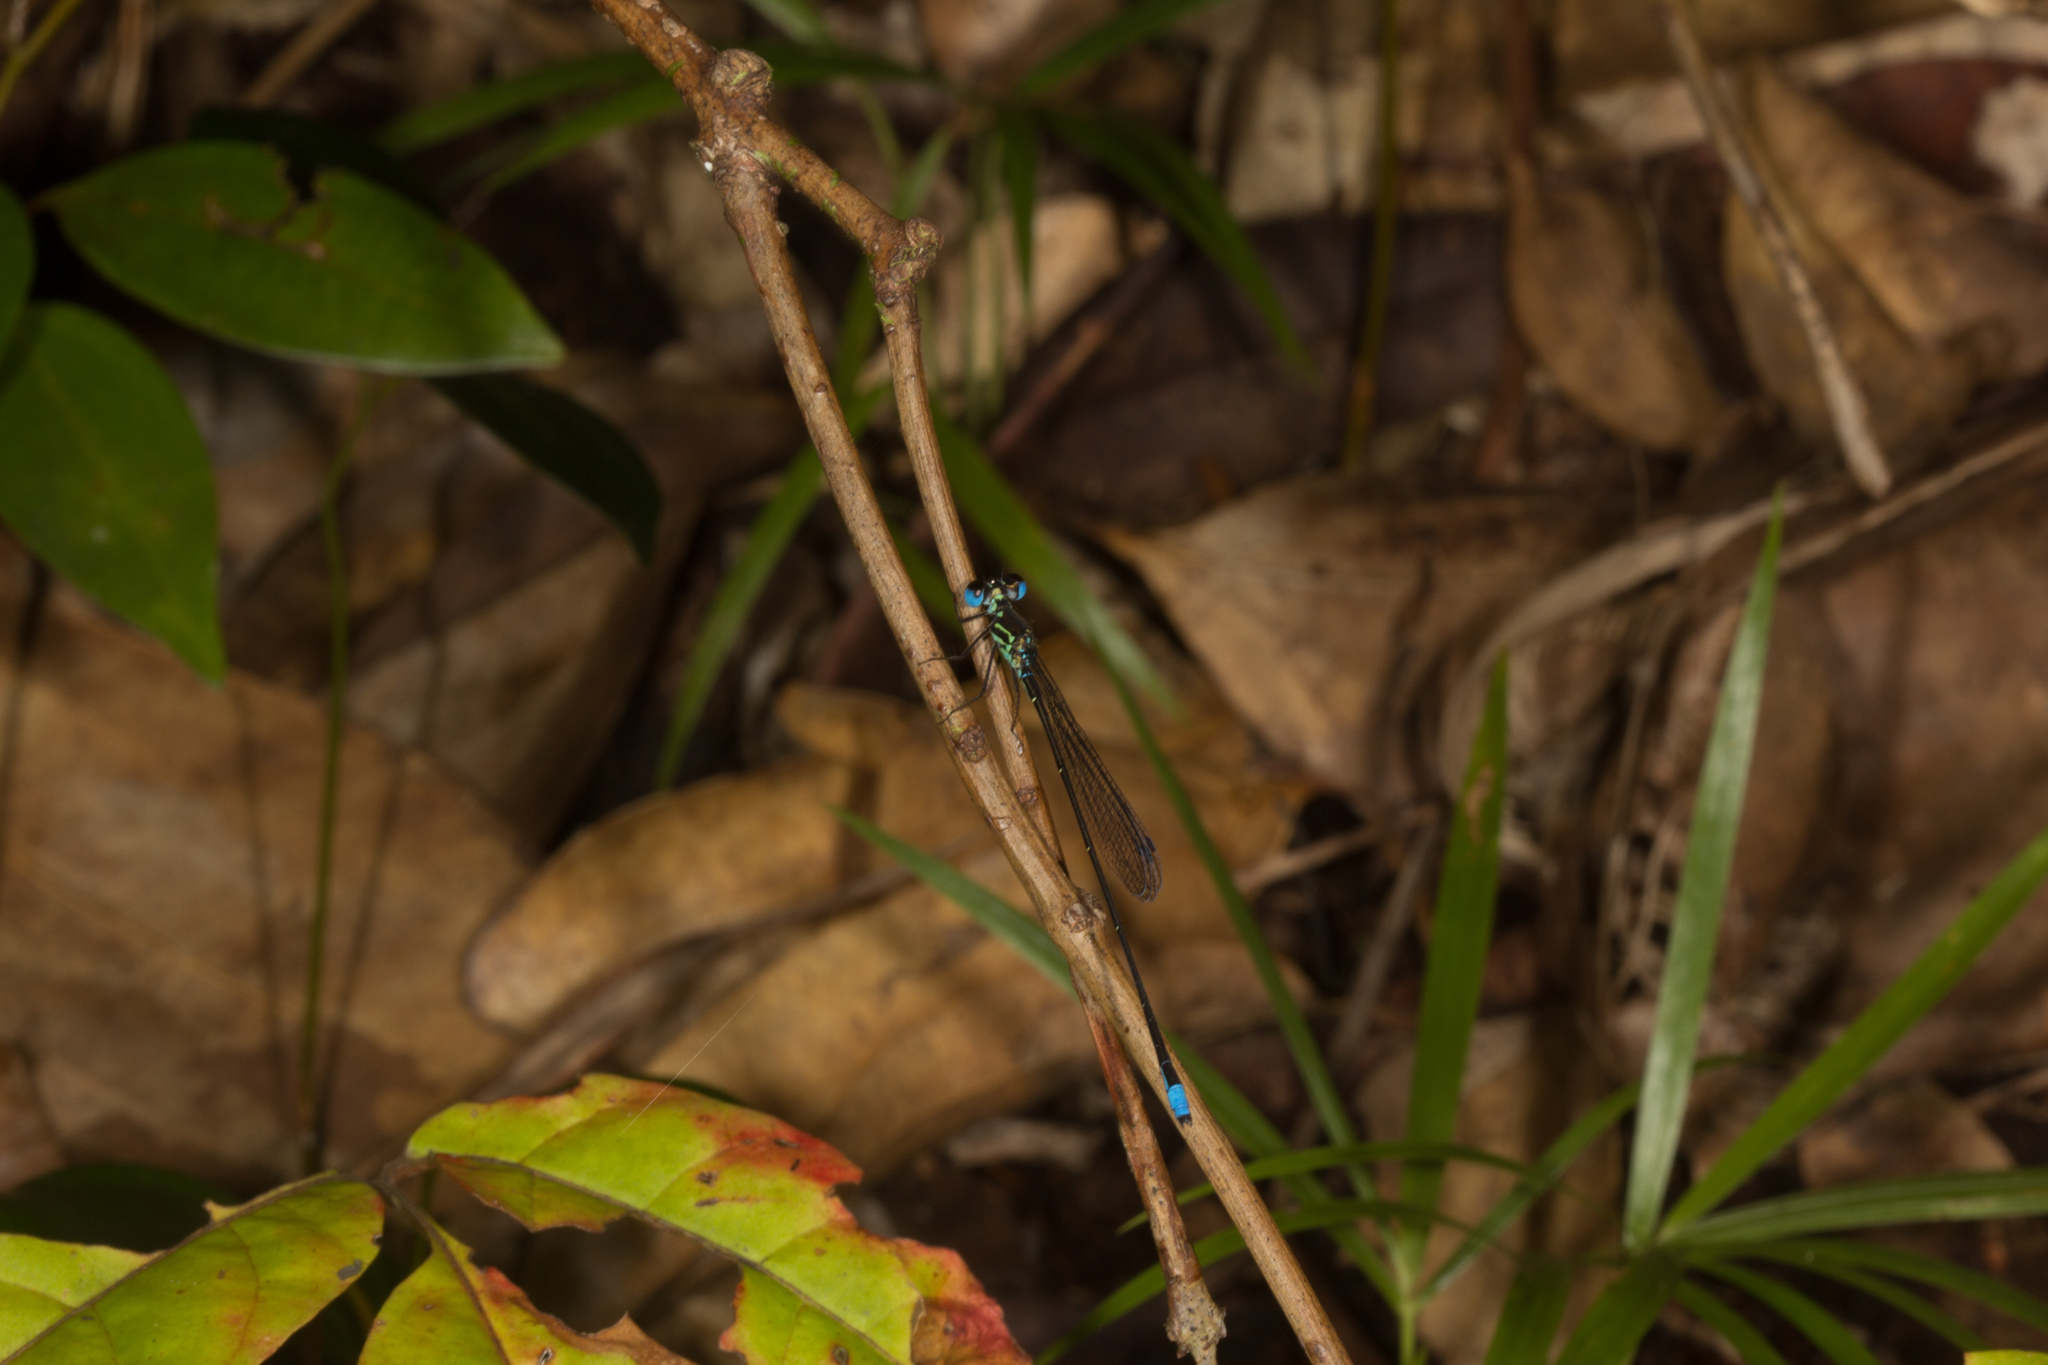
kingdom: Animalia
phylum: Arthropoda
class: Insecta
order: Odonata
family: Coenagrionidae
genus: Leptocnemis
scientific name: Leptocnemis cyanops
